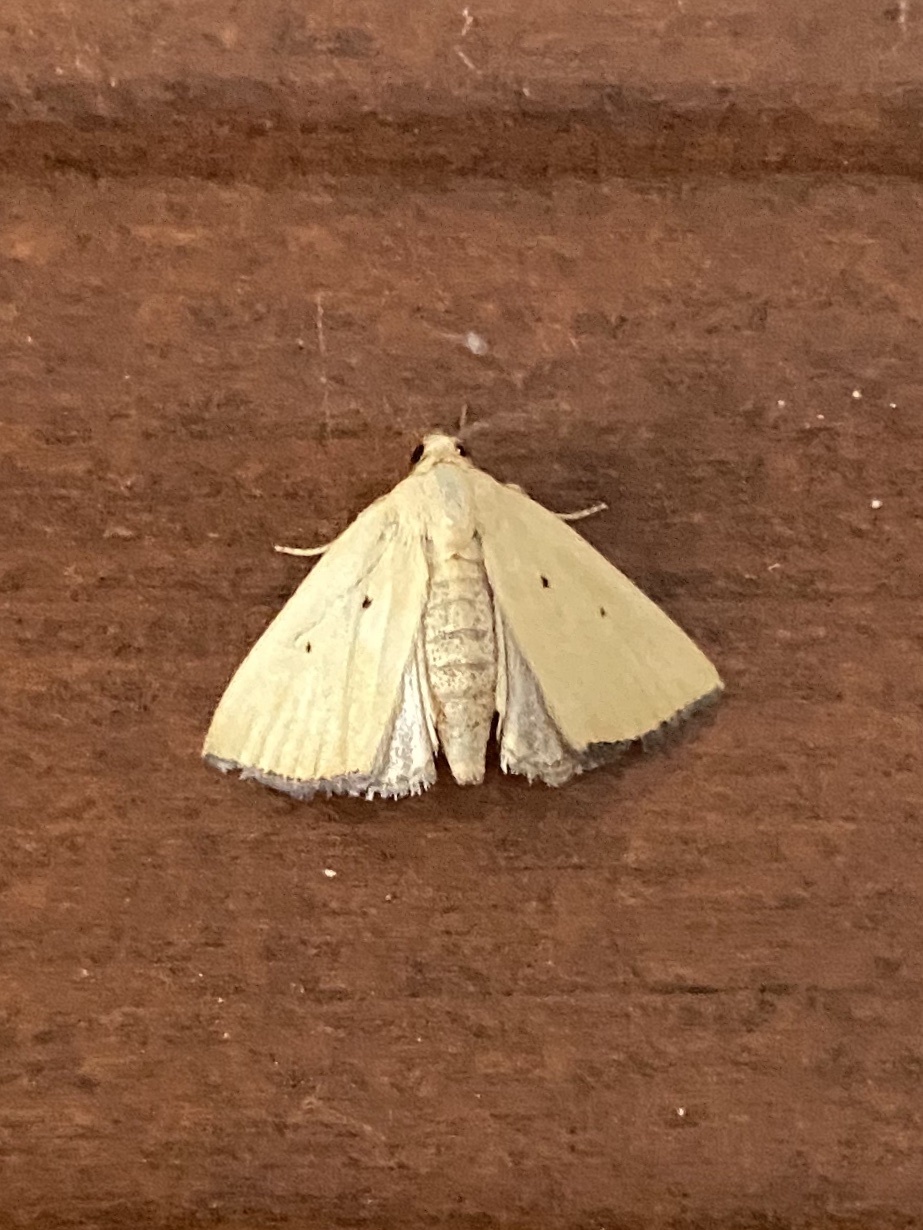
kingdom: Animalia
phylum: Arthropoda
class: Insecta
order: Lepidoptera
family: Noctuidae
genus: Marimatha
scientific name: Marimatha nigrofimbria
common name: Black-bordered lemon moth
